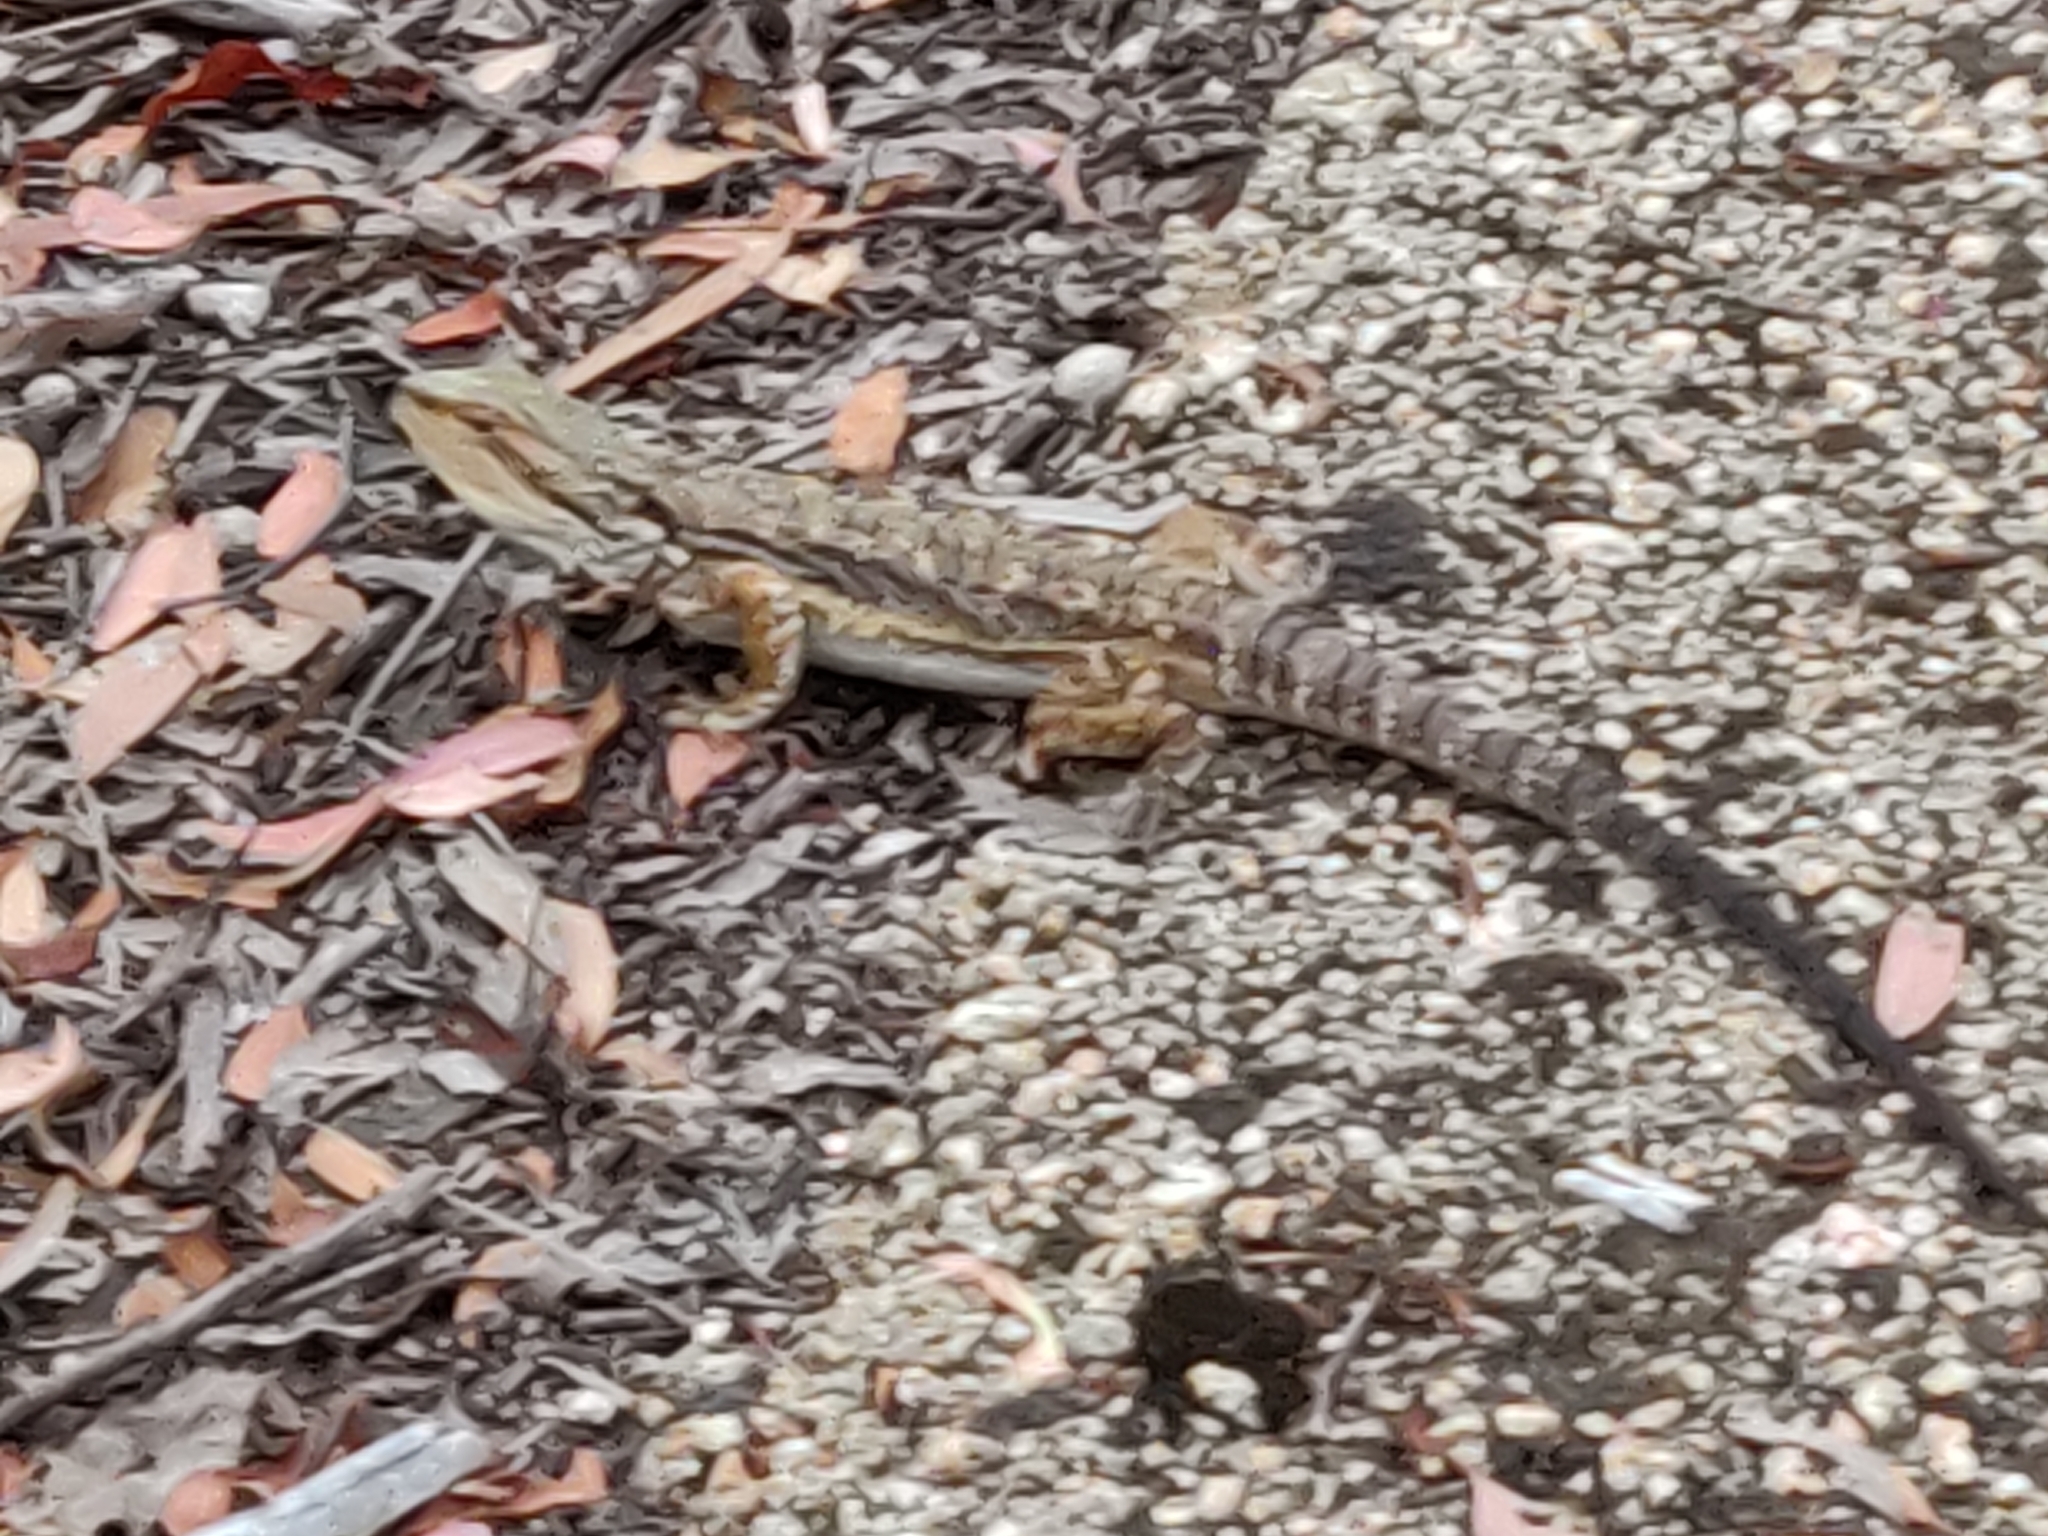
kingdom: Animalia
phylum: Chordata
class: Squamata
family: Agamidae
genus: Pogona
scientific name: Pogona barbata
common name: Bearded dragon
